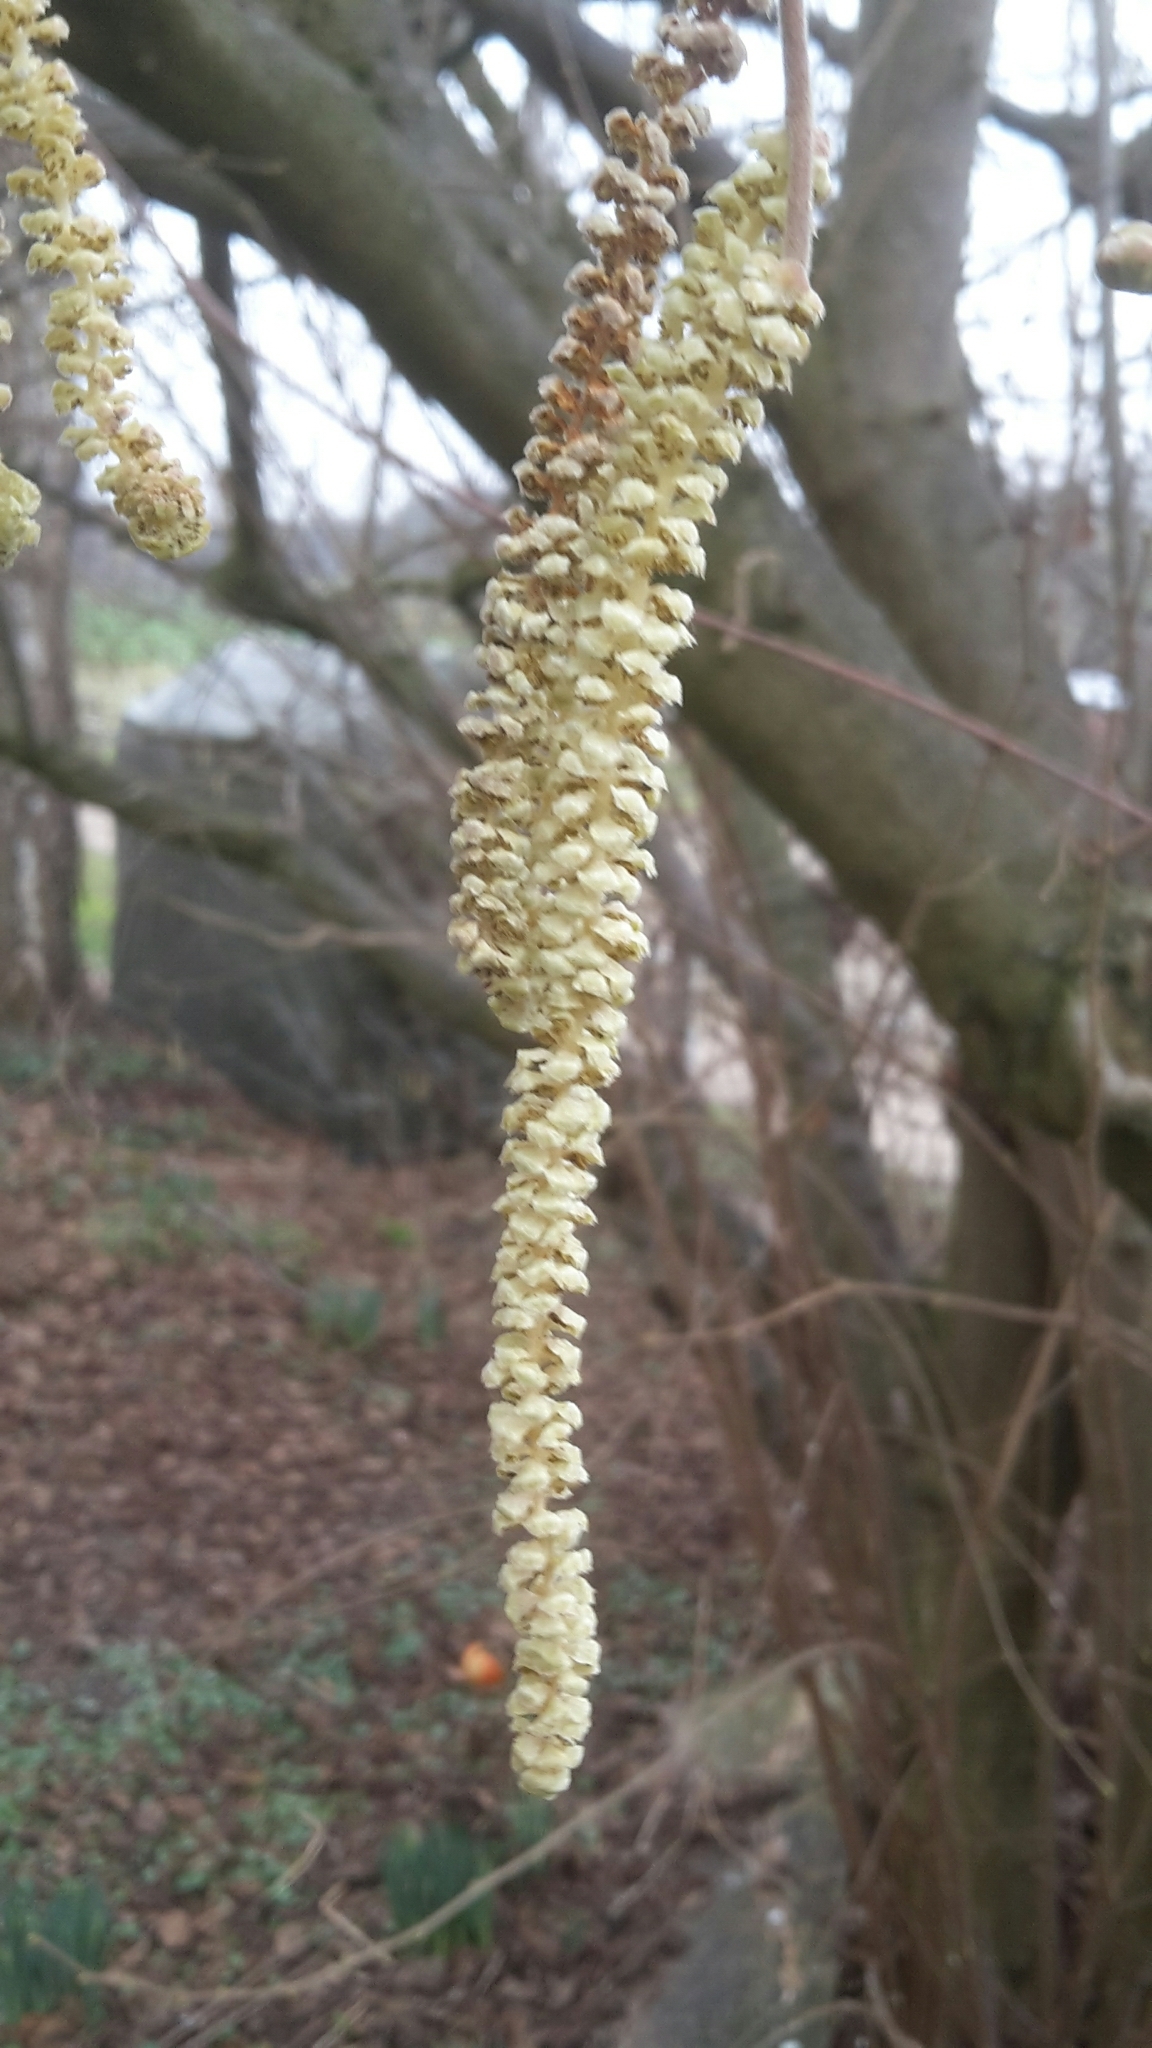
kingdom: Plantae
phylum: Tracheophyta
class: Magnoliopsida
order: Fagales
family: Betulaceae
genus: Corylus
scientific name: Corylus avellana
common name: European hazel
